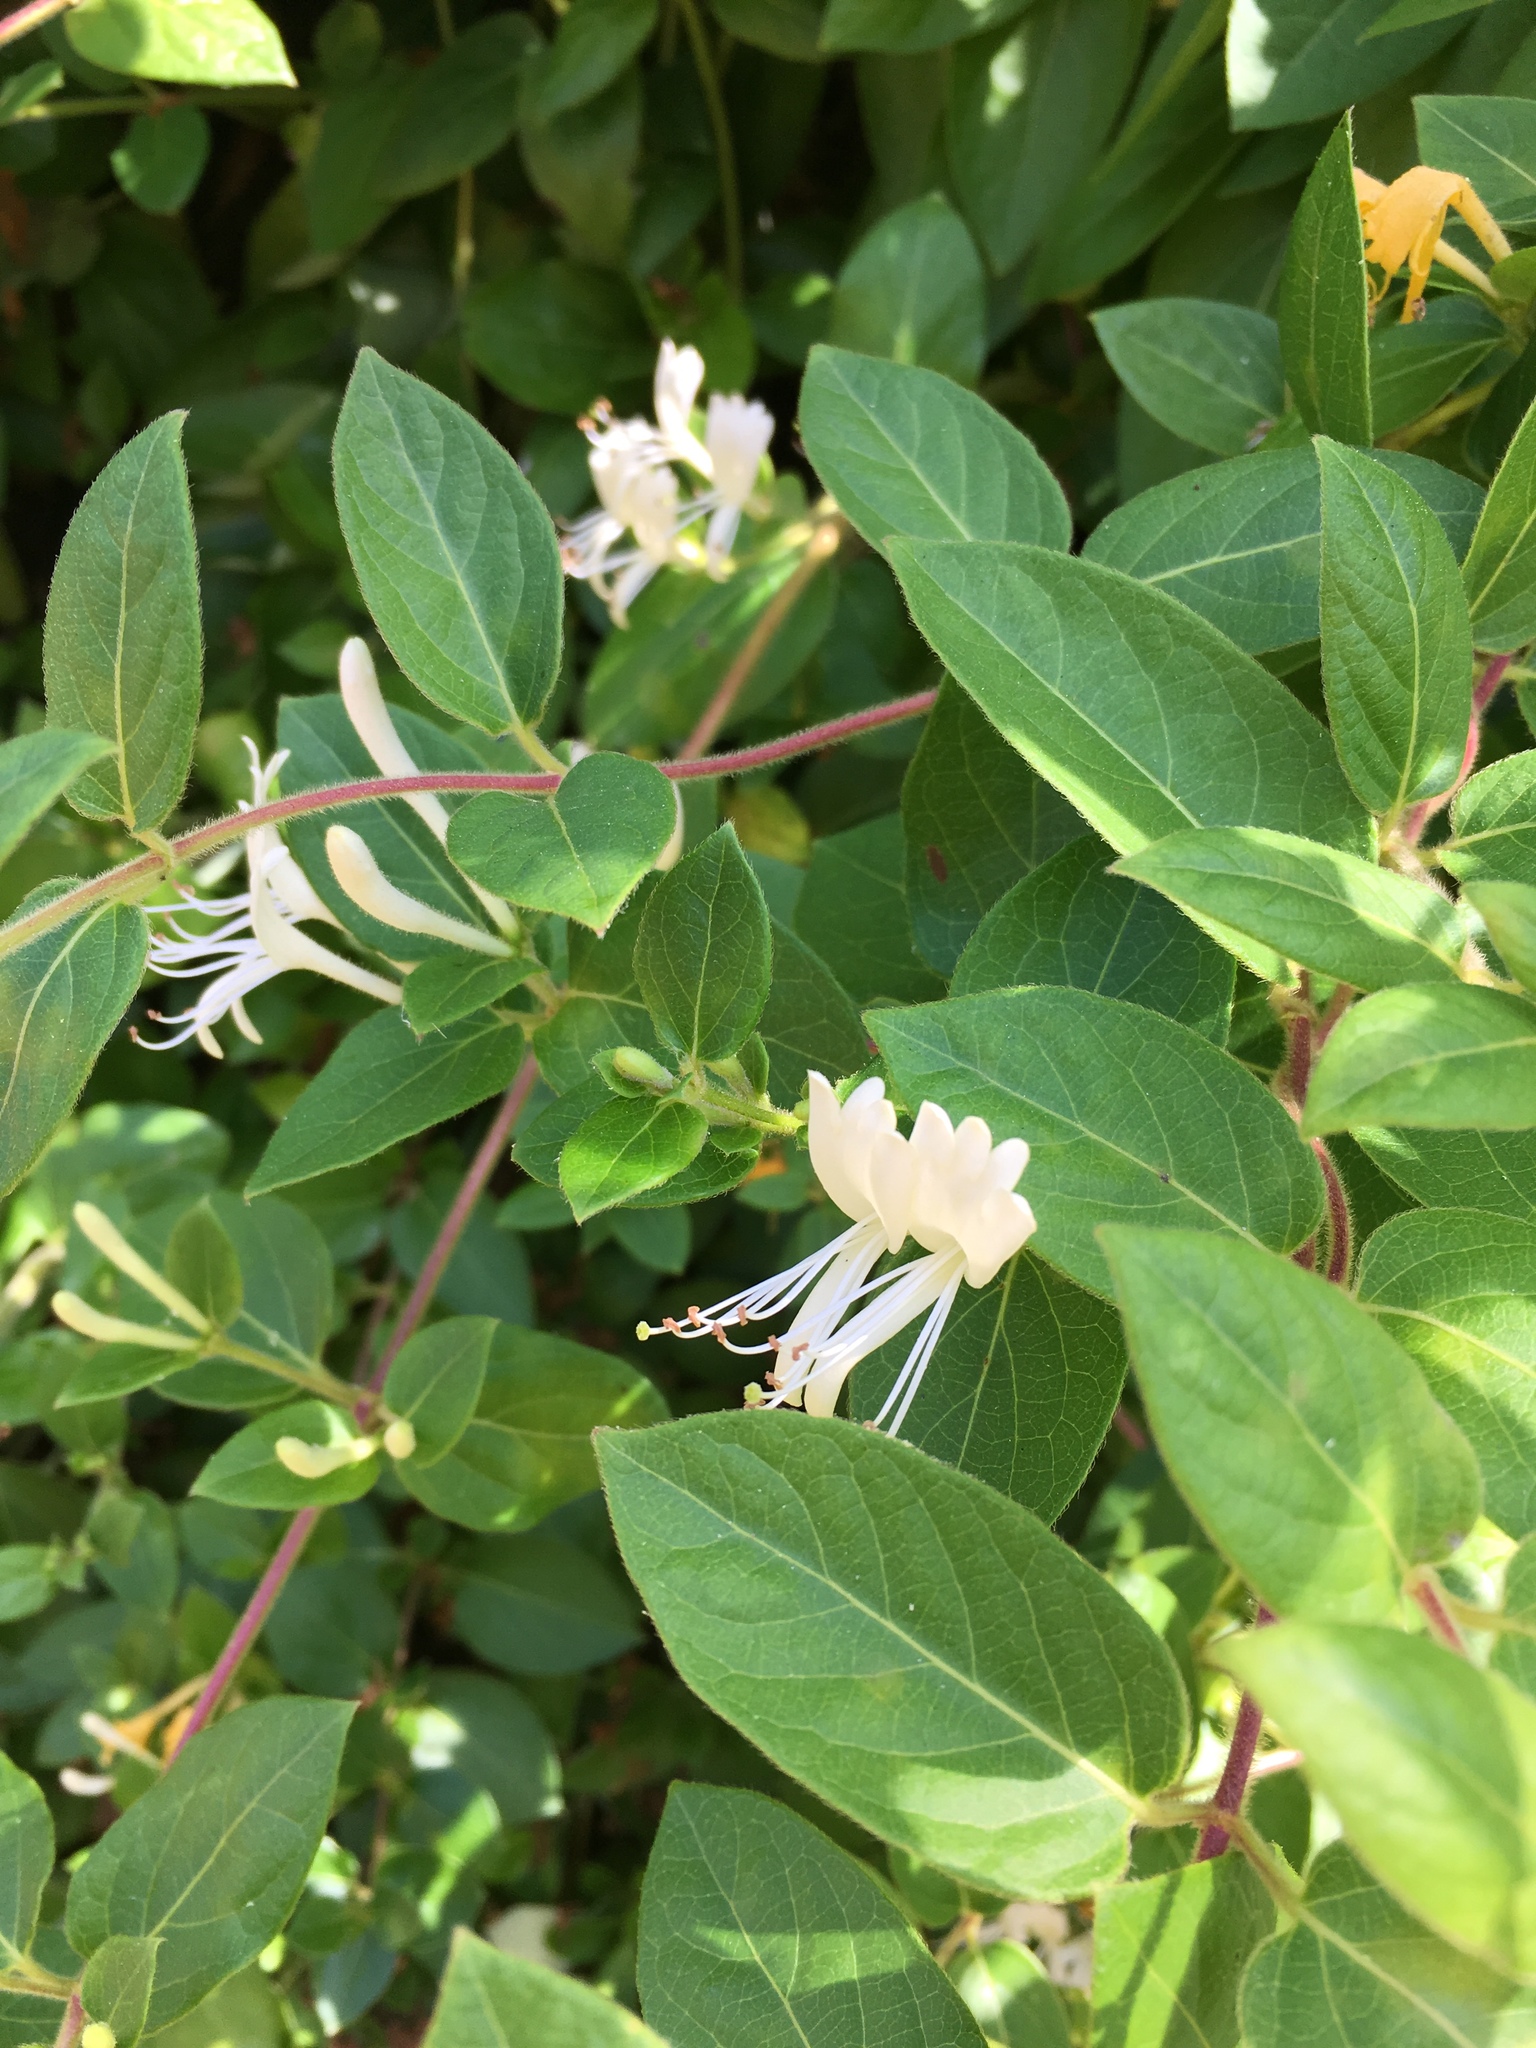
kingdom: Plantae
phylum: Tracheophyta
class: Magnoliopsida
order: Dipsacales
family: Caprifoliaceae
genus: Lonicera
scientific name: Lonicera japonica
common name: Japanese honeysuckle
